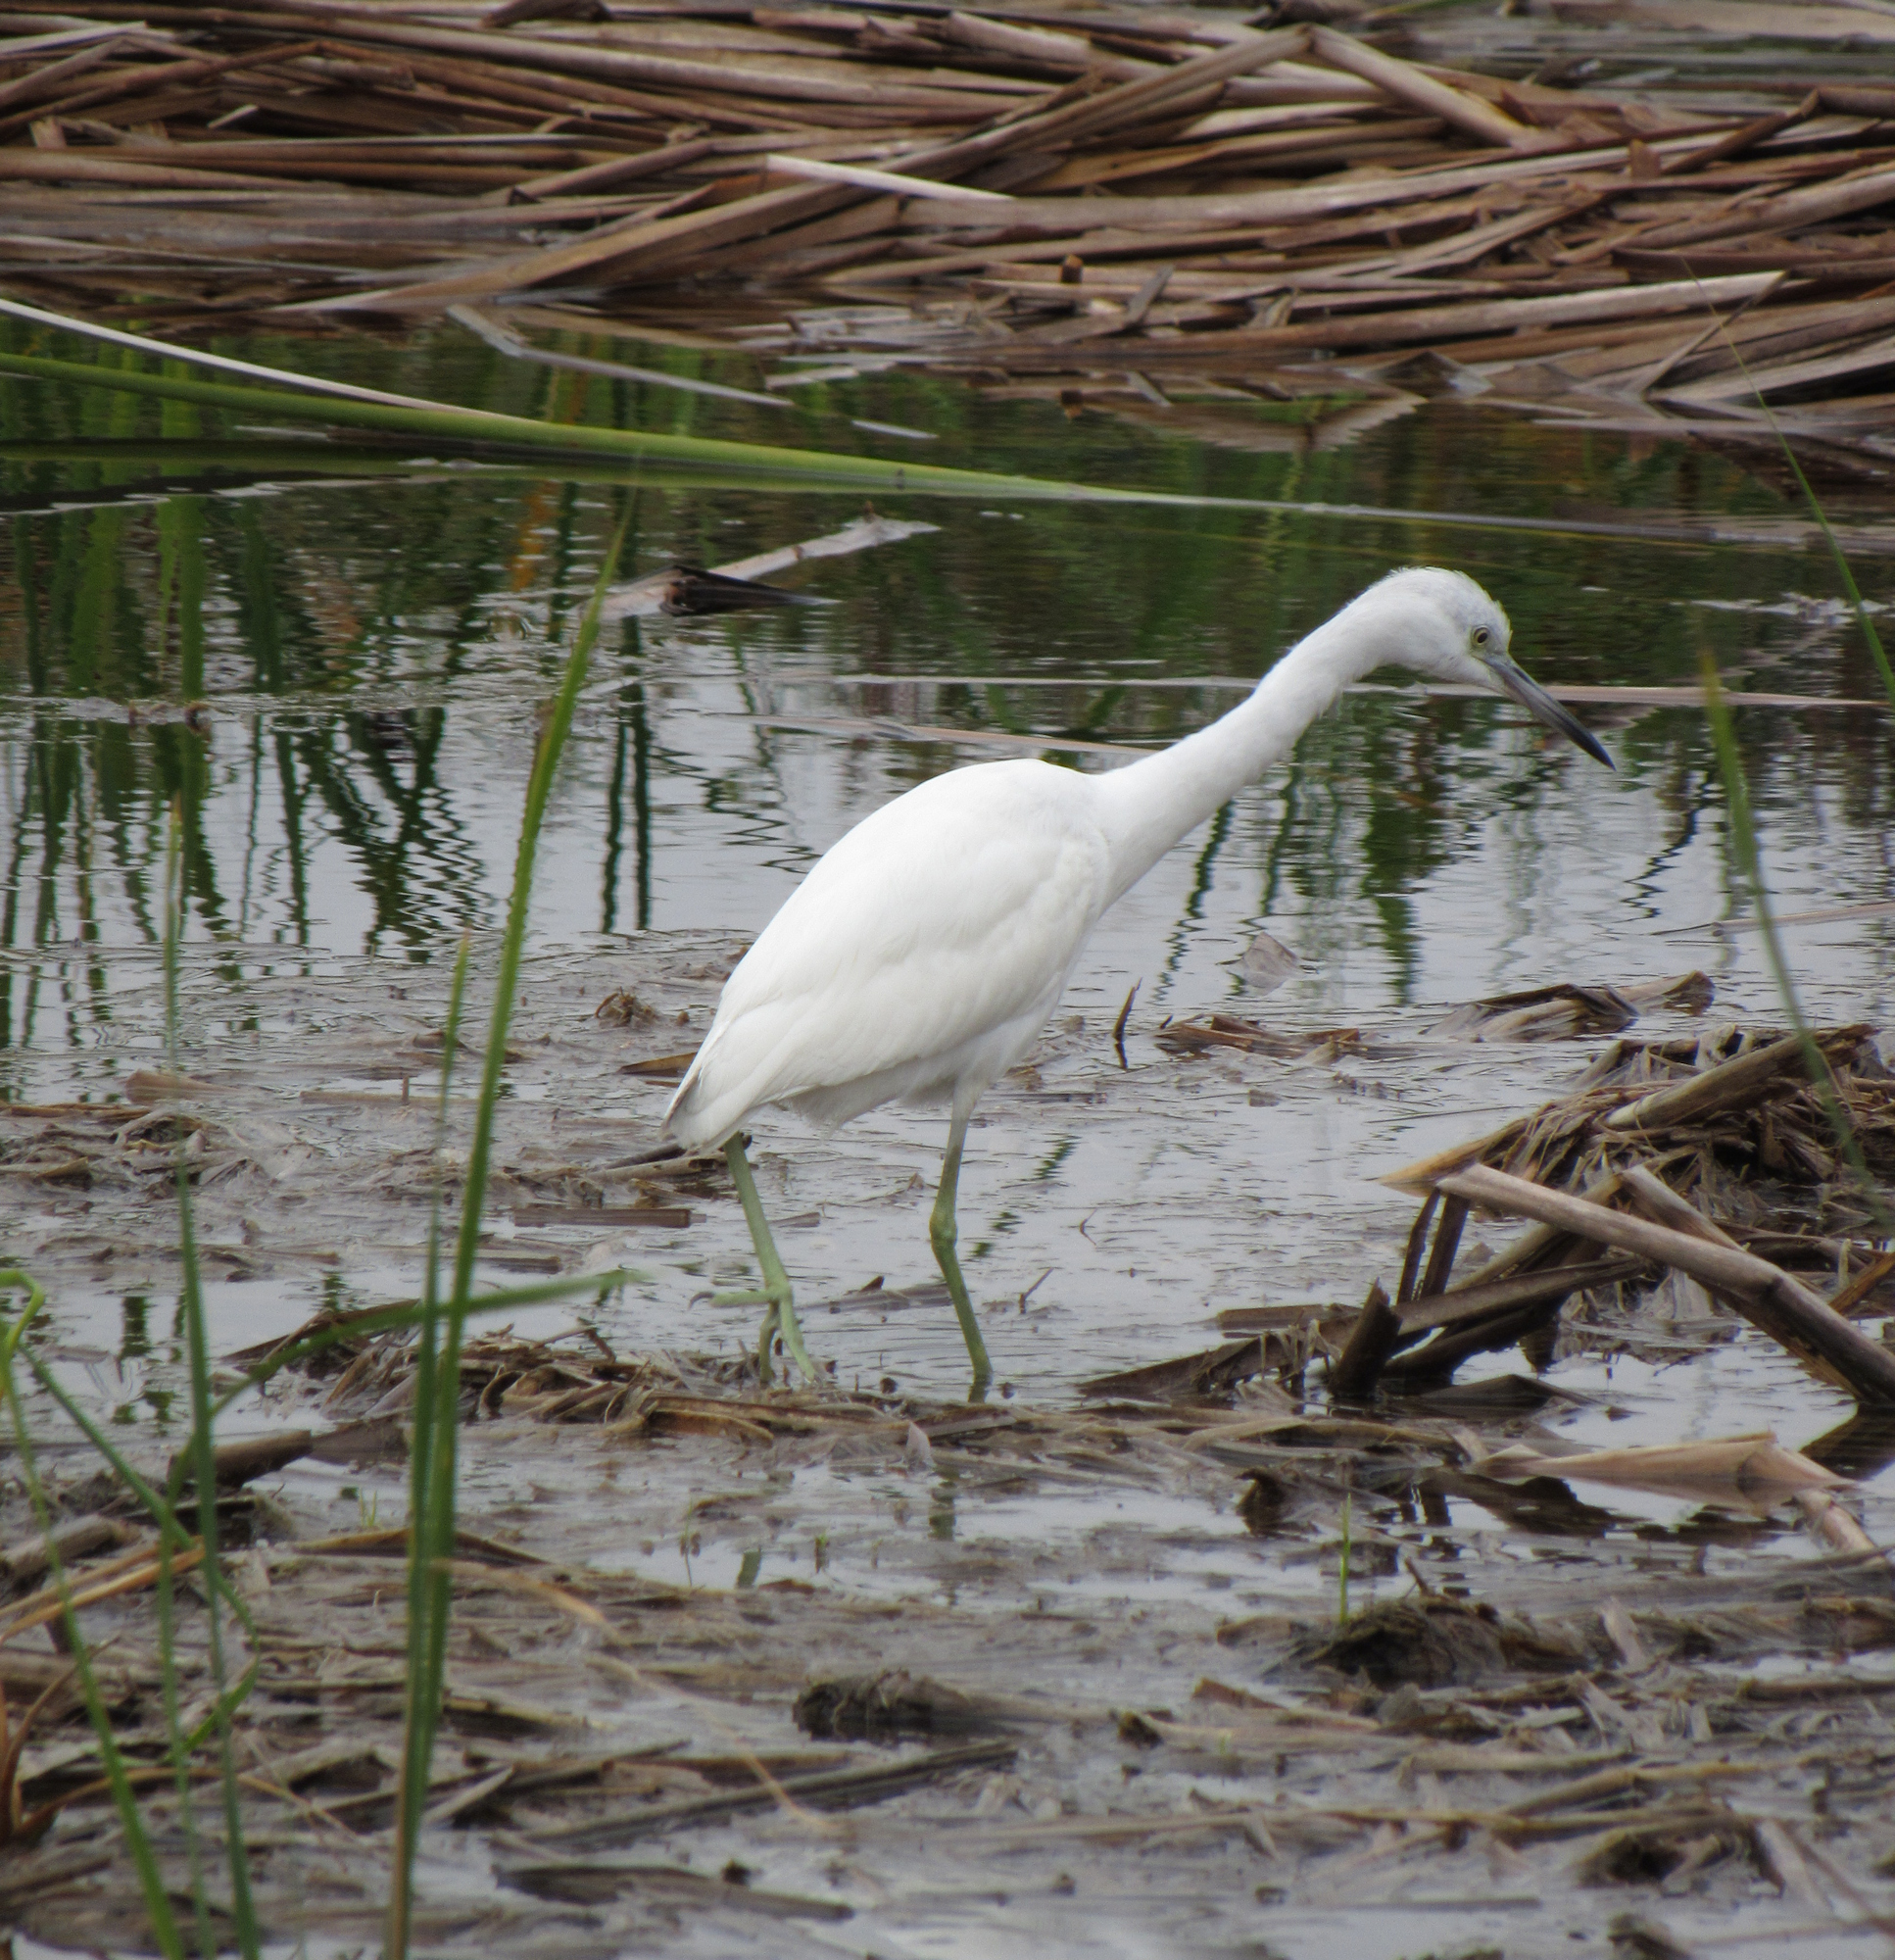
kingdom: Animalia
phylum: Chordata
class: Aves
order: Pelecaniformes
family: Ardeidae
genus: Egretta
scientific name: Egretta caerulea
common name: Little blue heron
